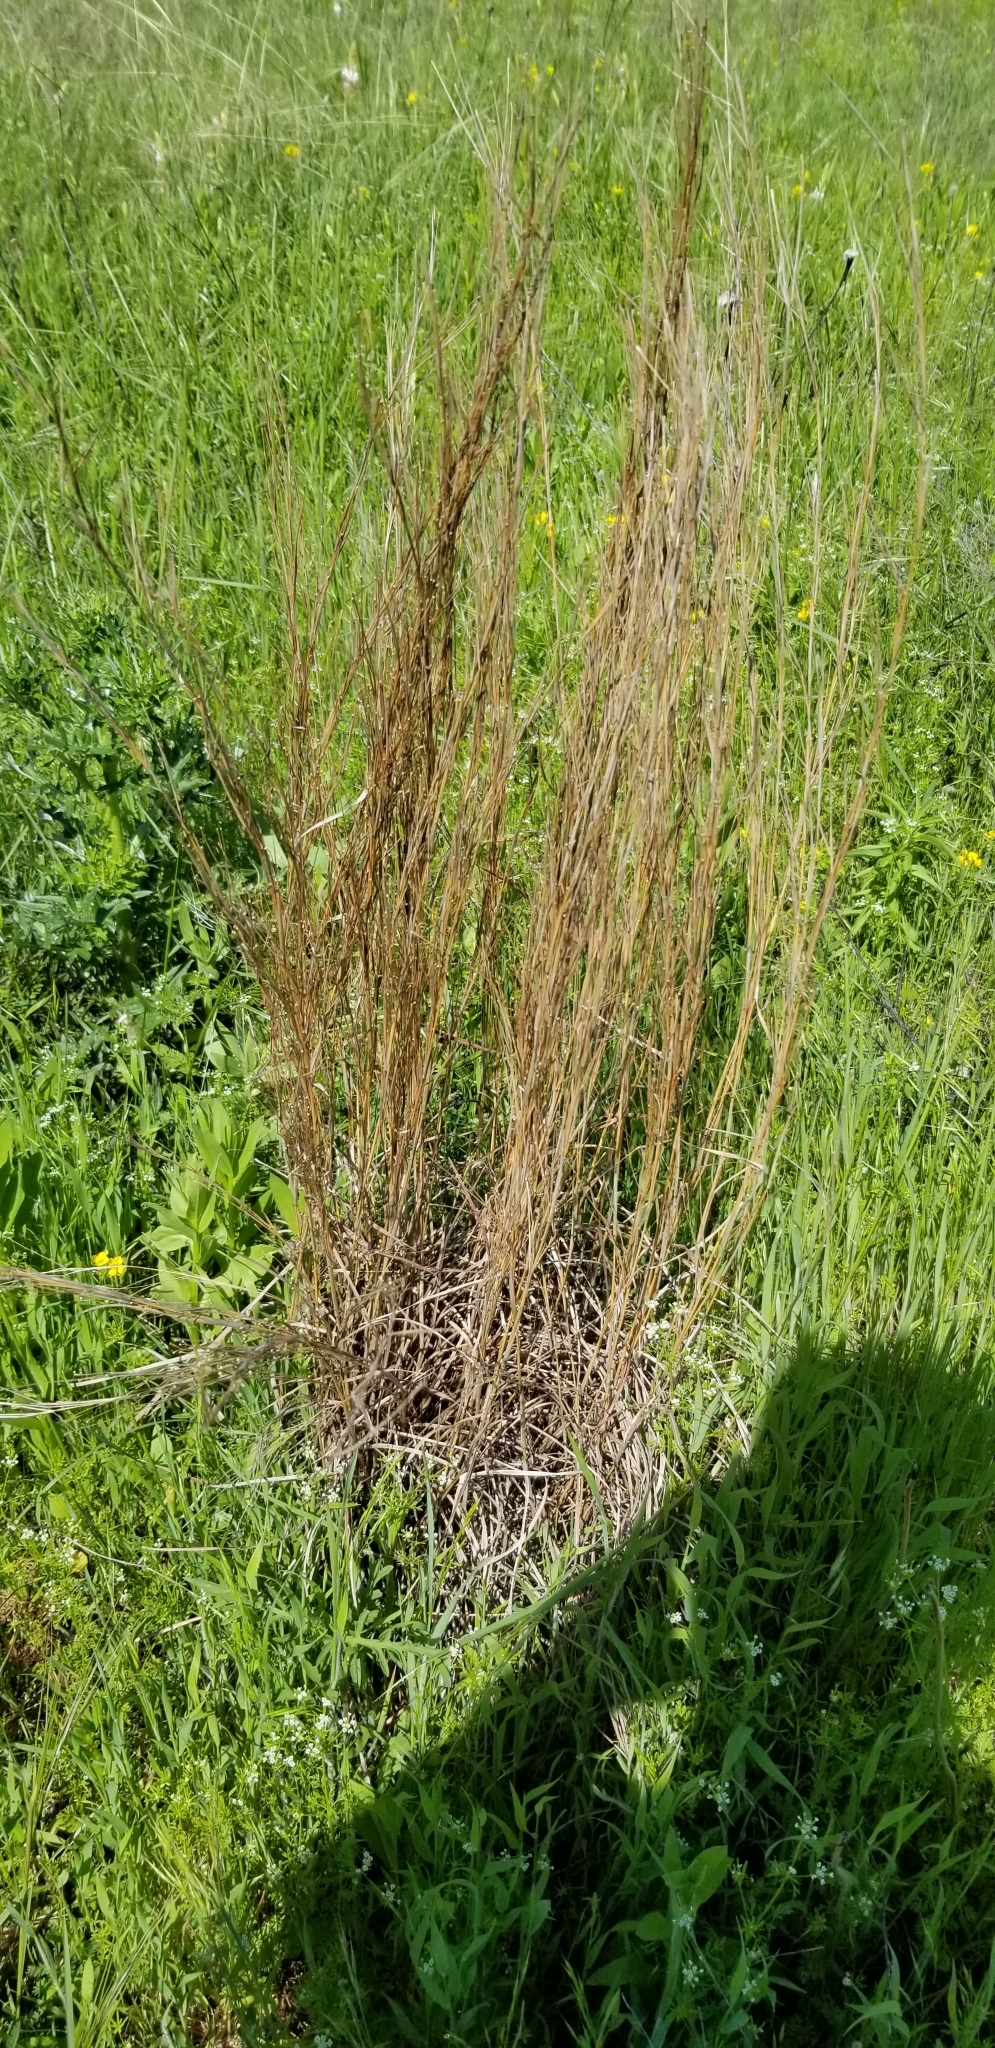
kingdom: Plantae
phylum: Tracheophyta
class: Liliopsida
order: Poales
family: Poaceae
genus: Schizachyrium
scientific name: Schizachyrium scoparium
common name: Little bluestem
